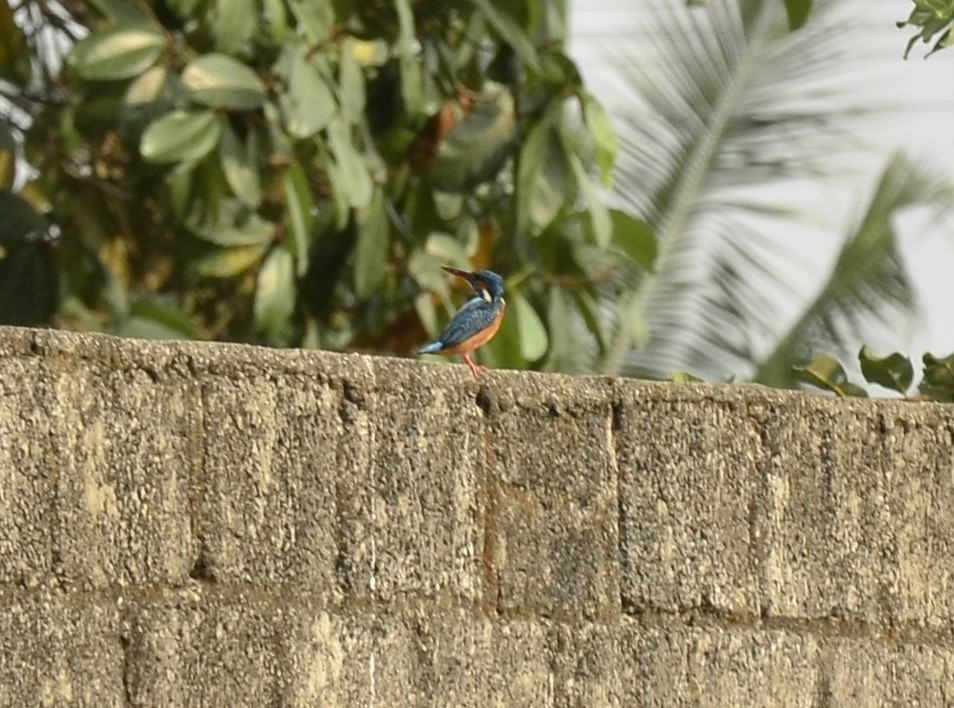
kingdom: Animalia
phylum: Chordata
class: Aves
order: Coraciiformes
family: Alcedinidae
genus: Alcedo
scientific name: Alcedo atthis
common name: Common kingfisher
